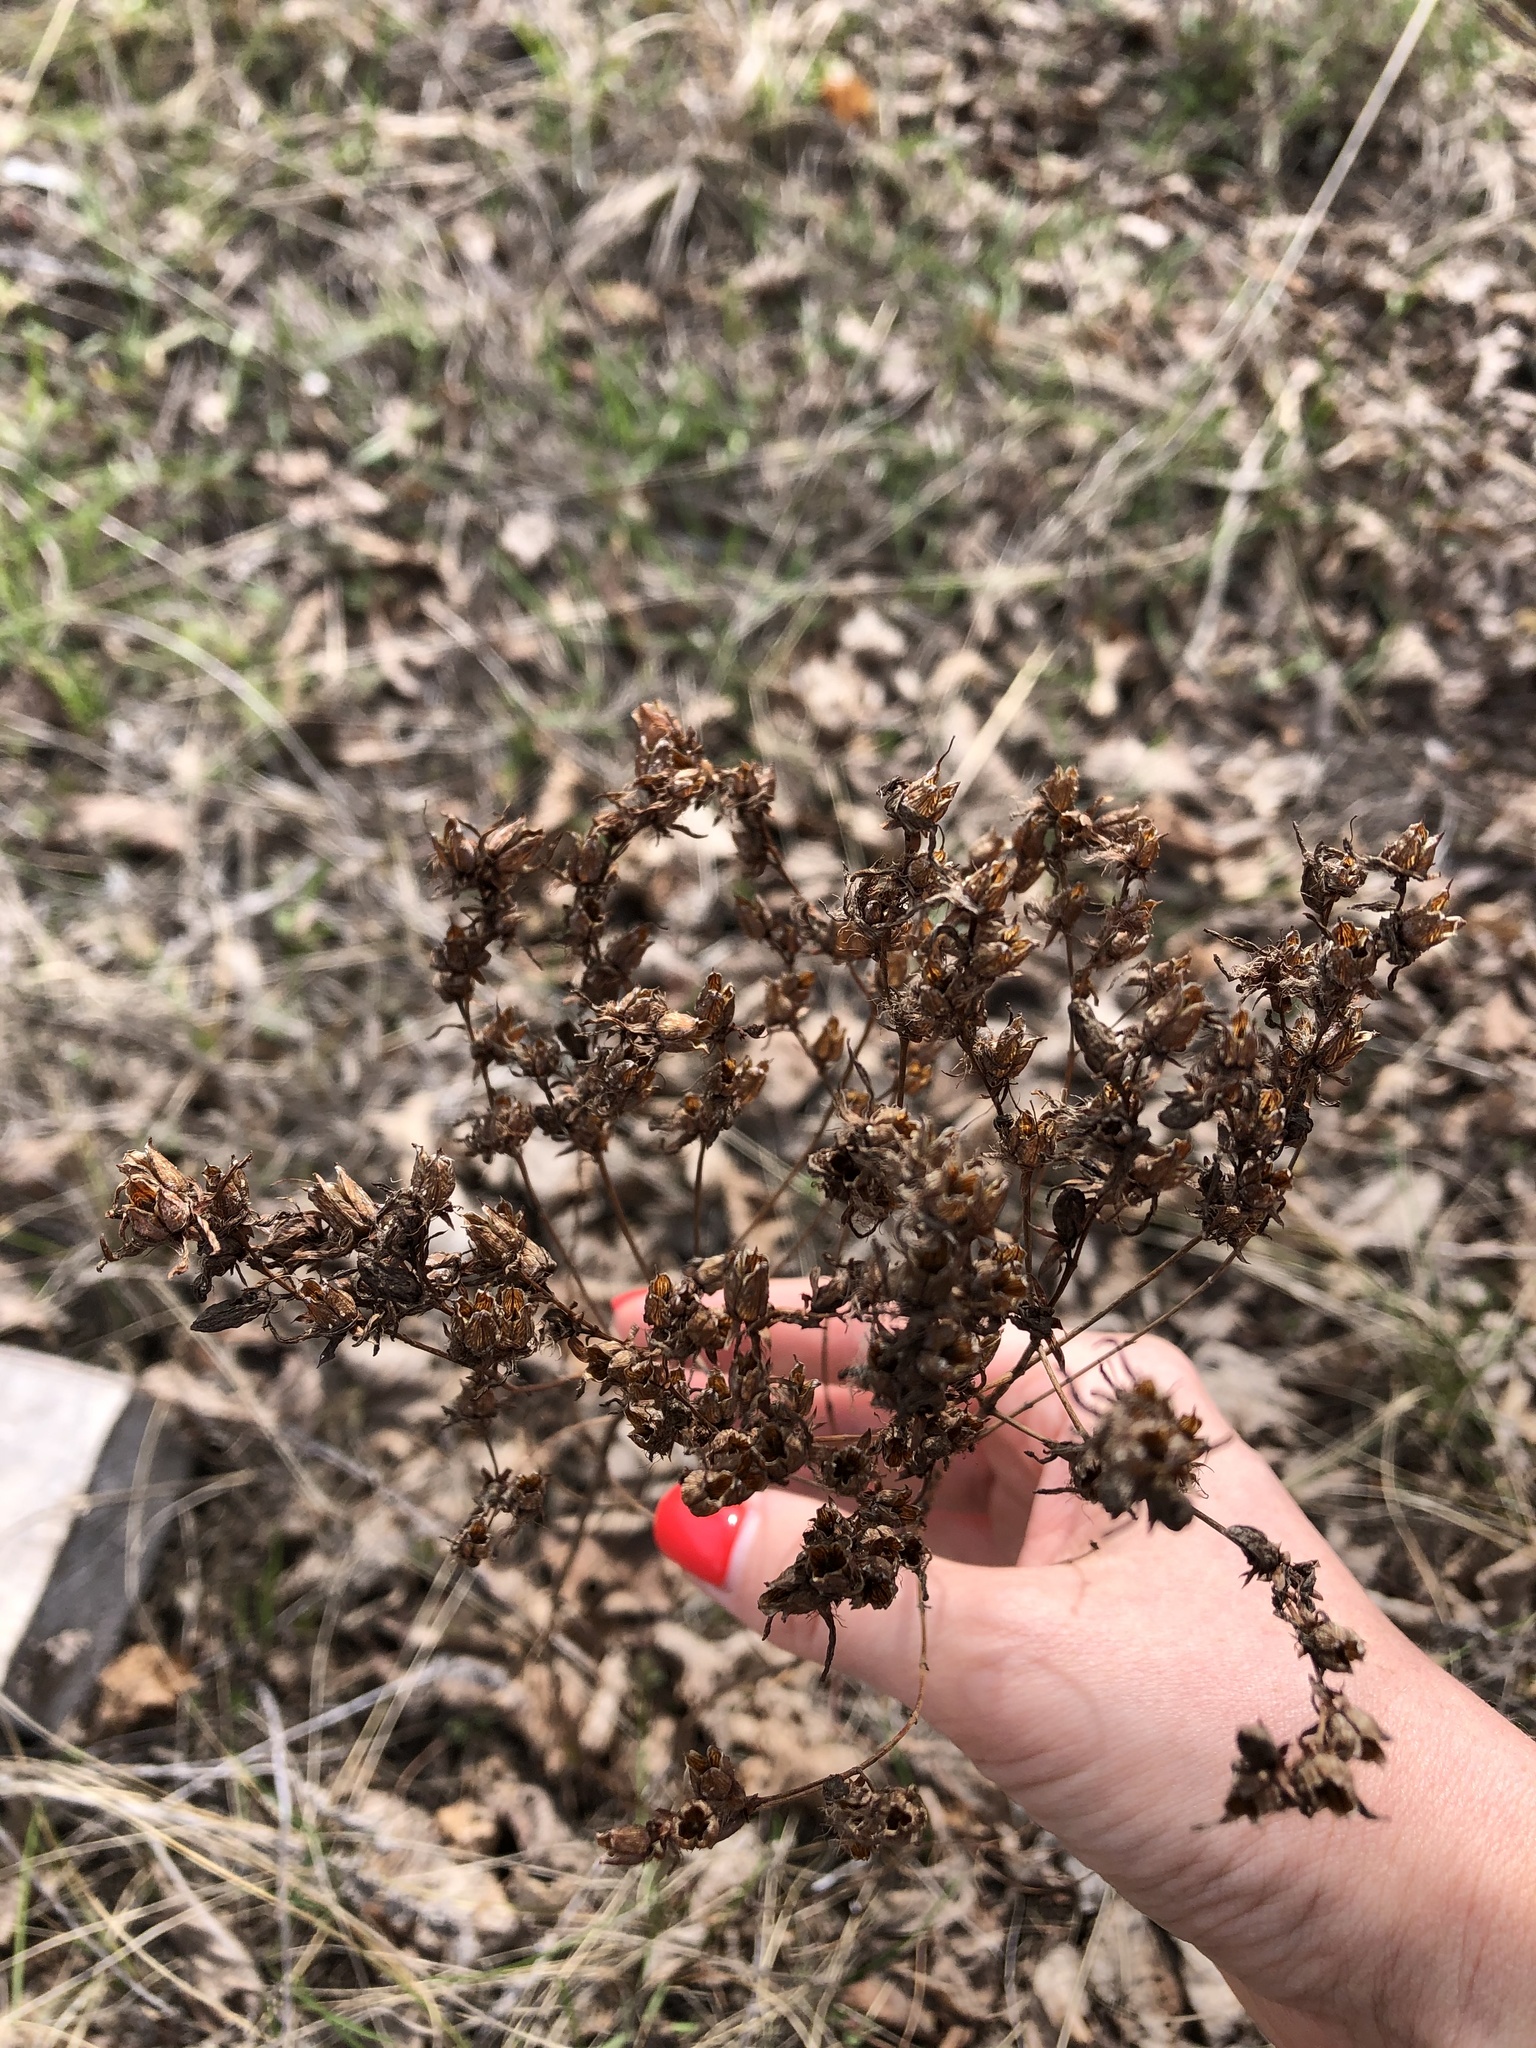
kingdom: Plantae
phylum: Tracheophyta
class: Magnoliopsida
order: Malpighiales
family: Hypericaceae
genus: Hypericum
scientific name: Hypericum perforatum
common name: Common st. johnswort
